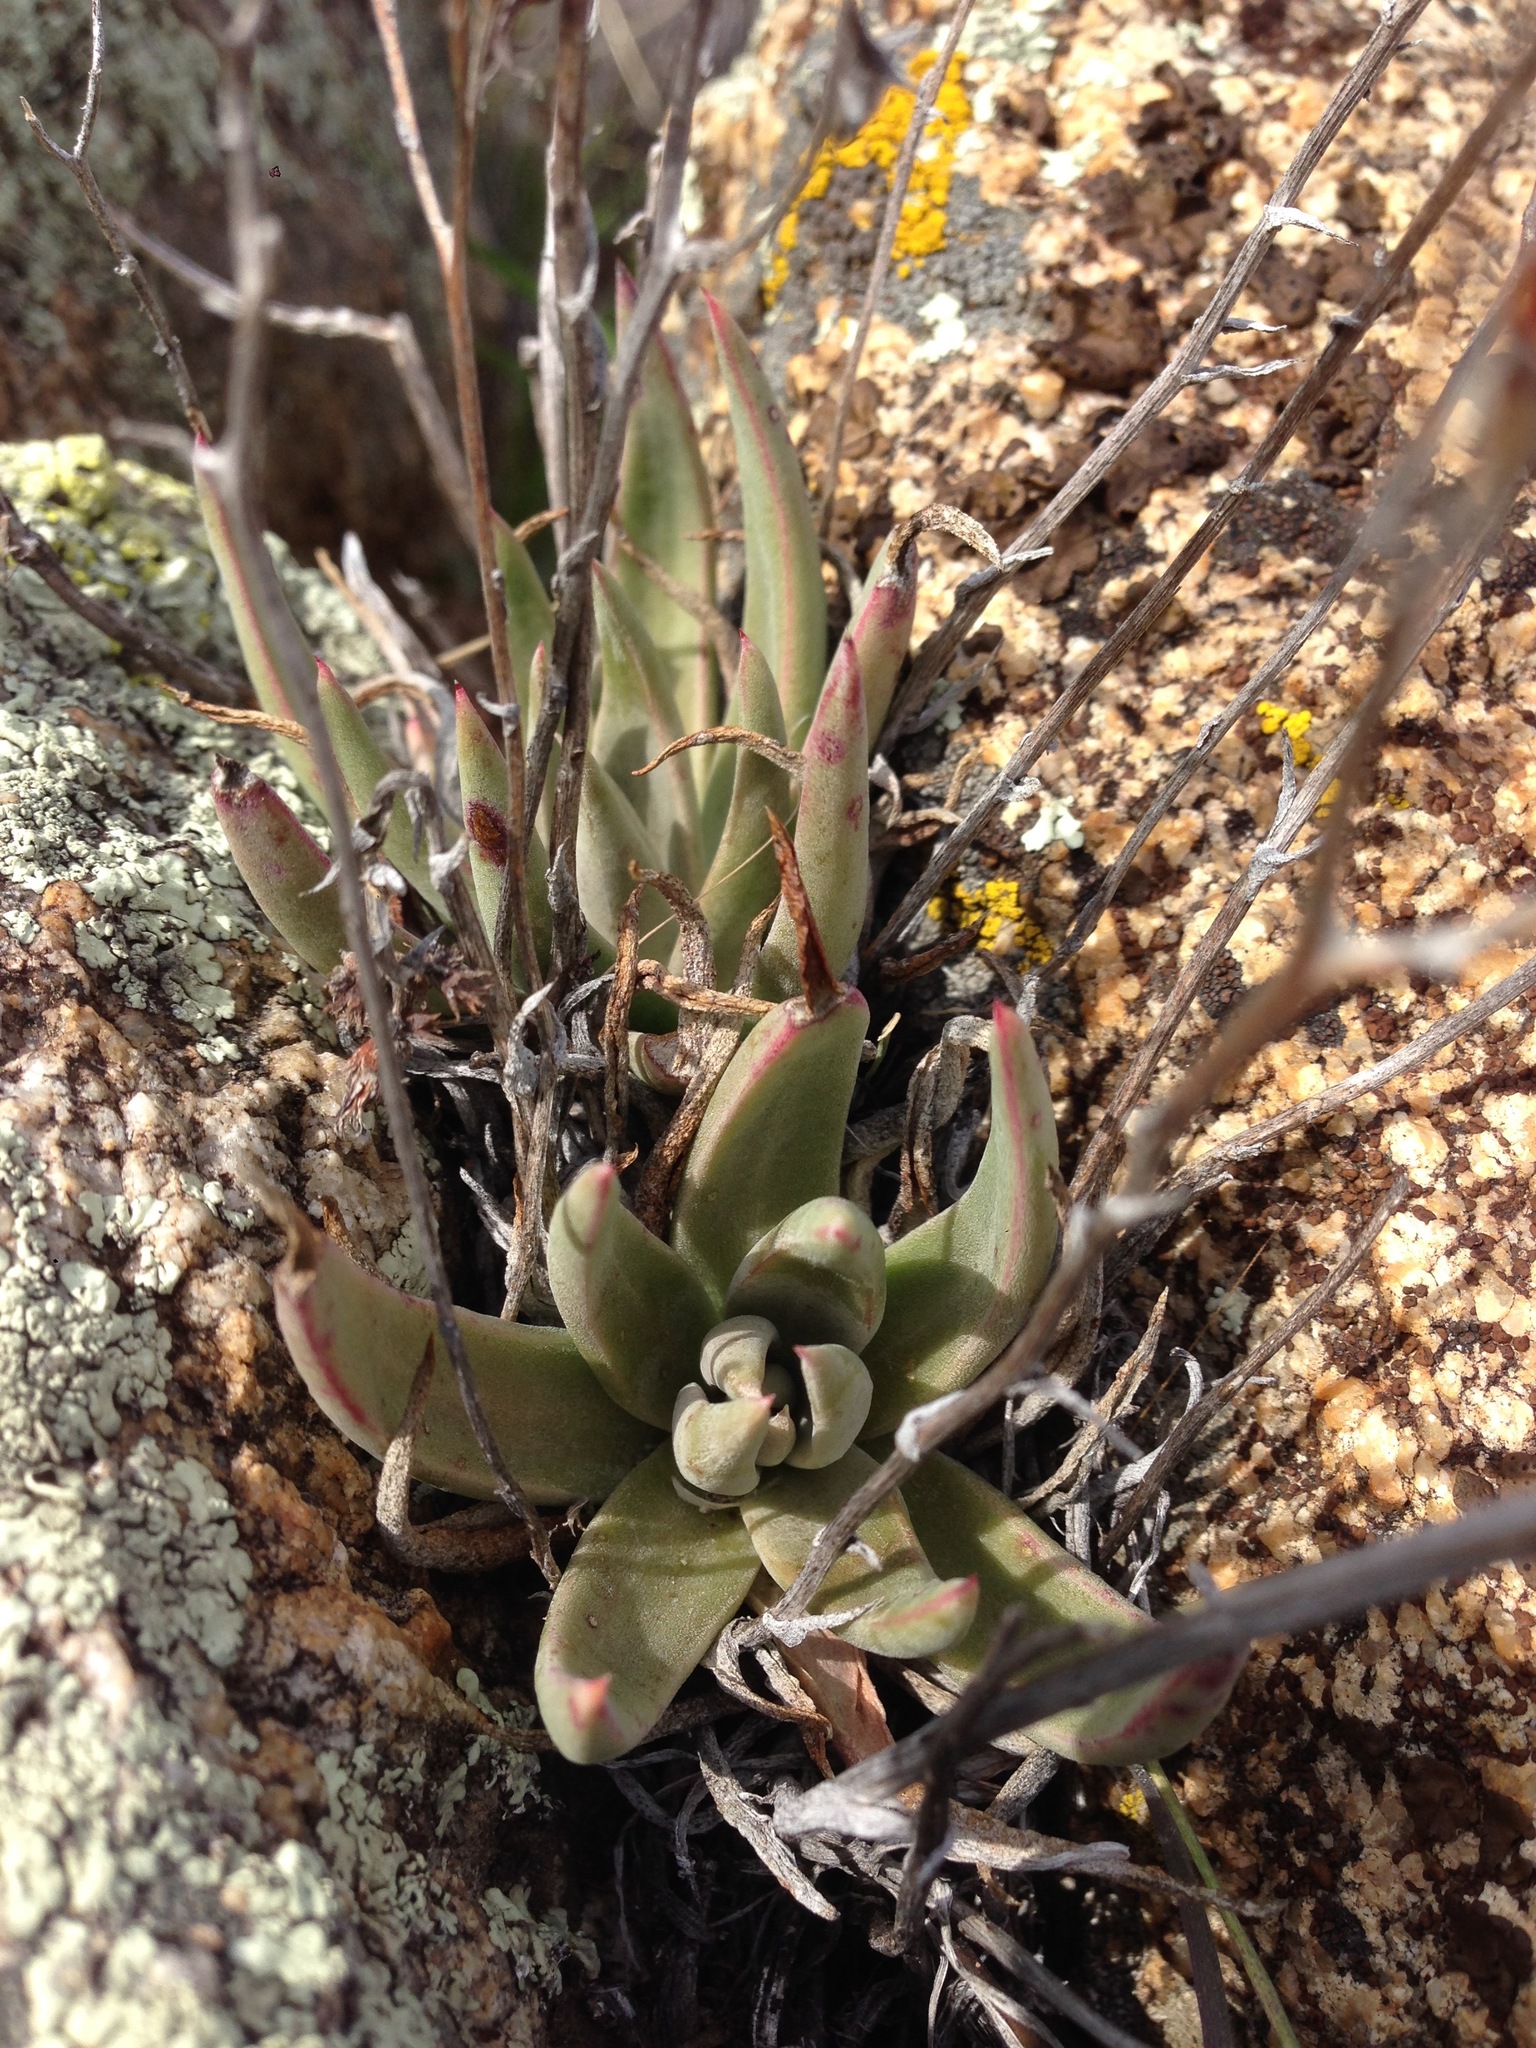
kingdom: Plantae
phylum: Tracheophyta
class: Magnoliopsida
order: Saxifragales
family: Crassulaceae
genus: Dudleya
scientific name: Dudleya abramsii
